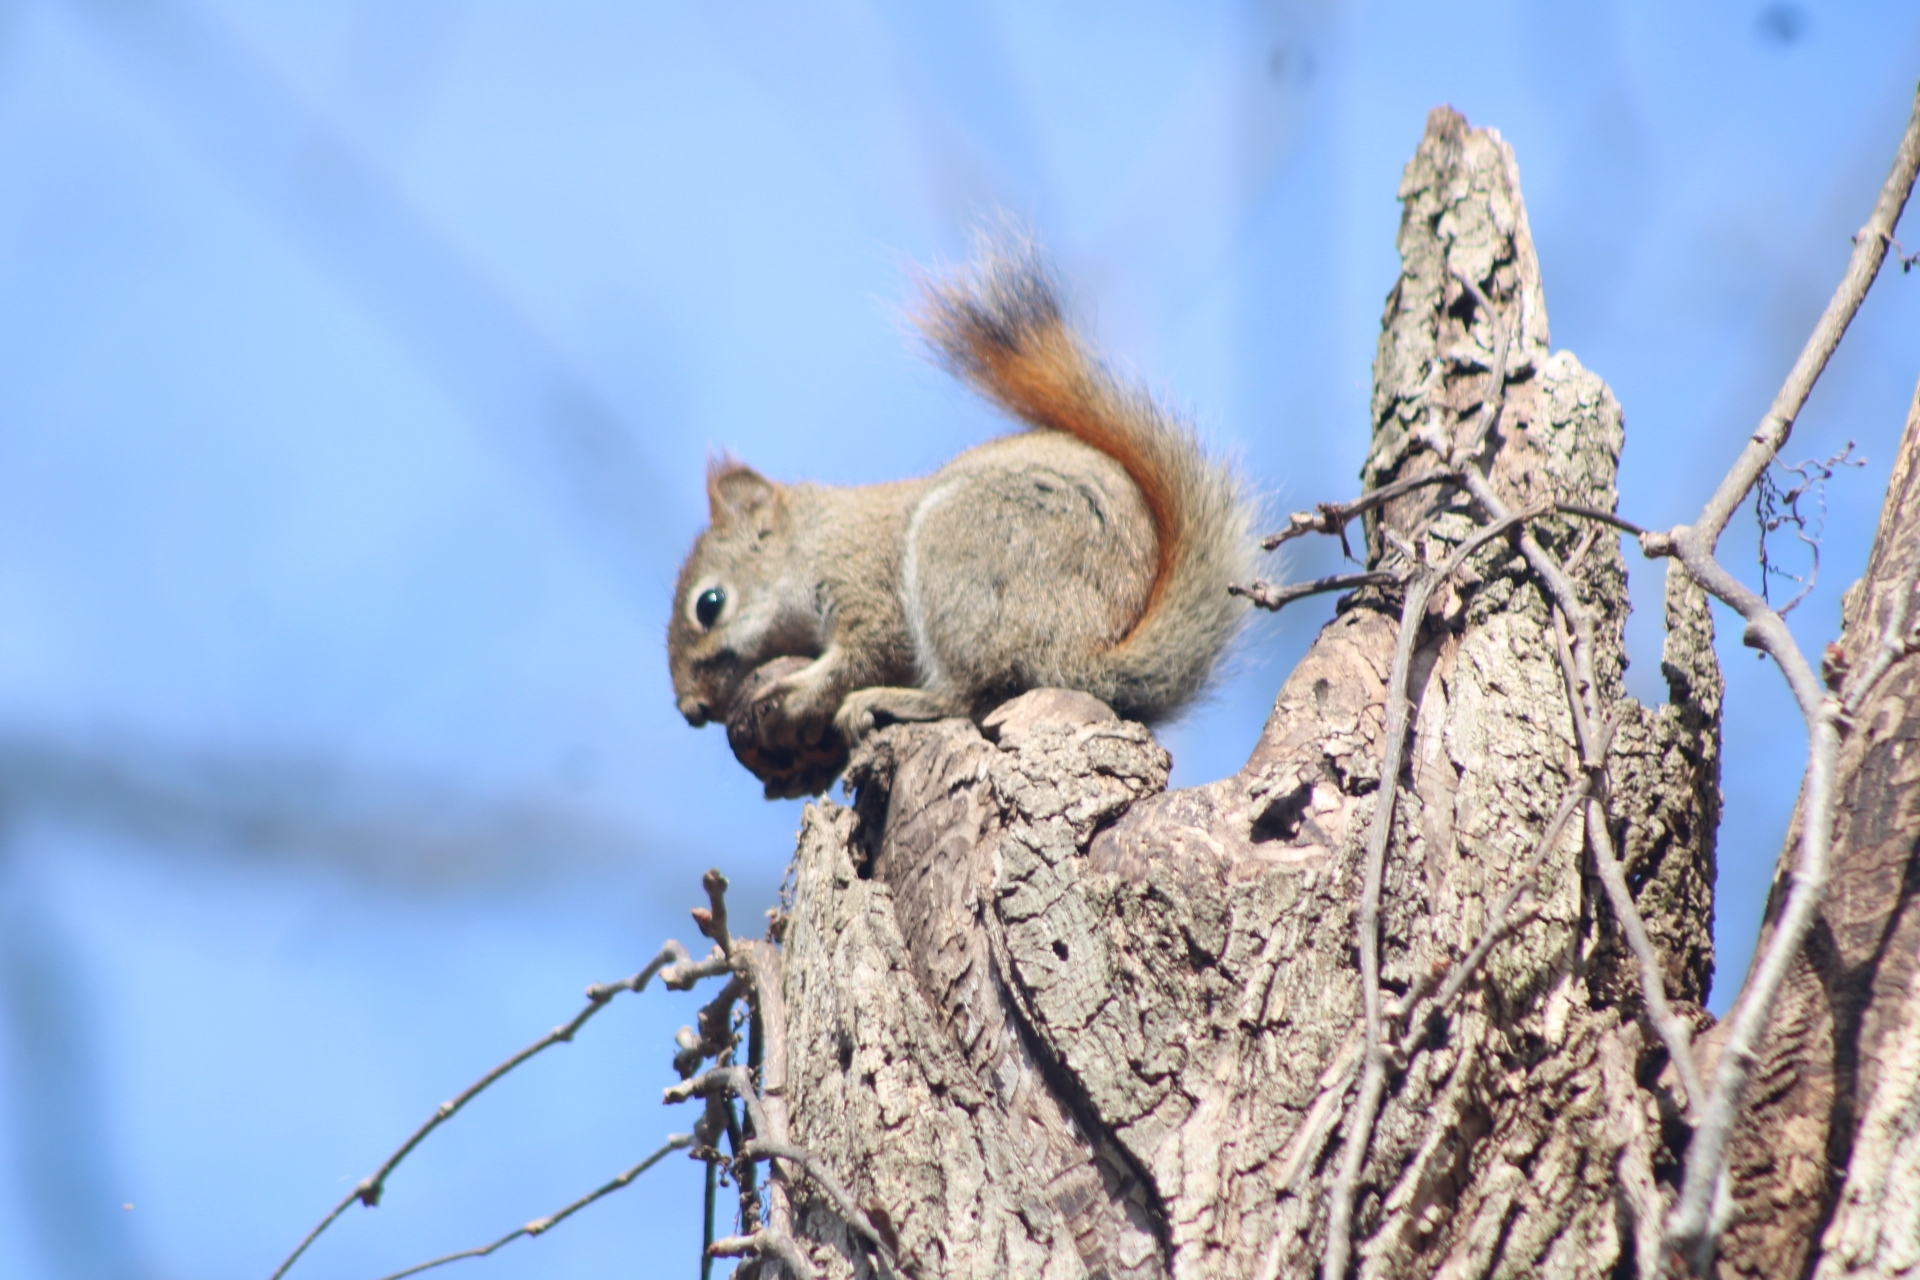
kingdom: Animalia
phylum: Chordata
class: Mammalia
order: Rodentia
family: Sciuridae
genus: Tamiasciurus
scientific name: Tamiasciurus hudsonicus
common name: Red squirrel
